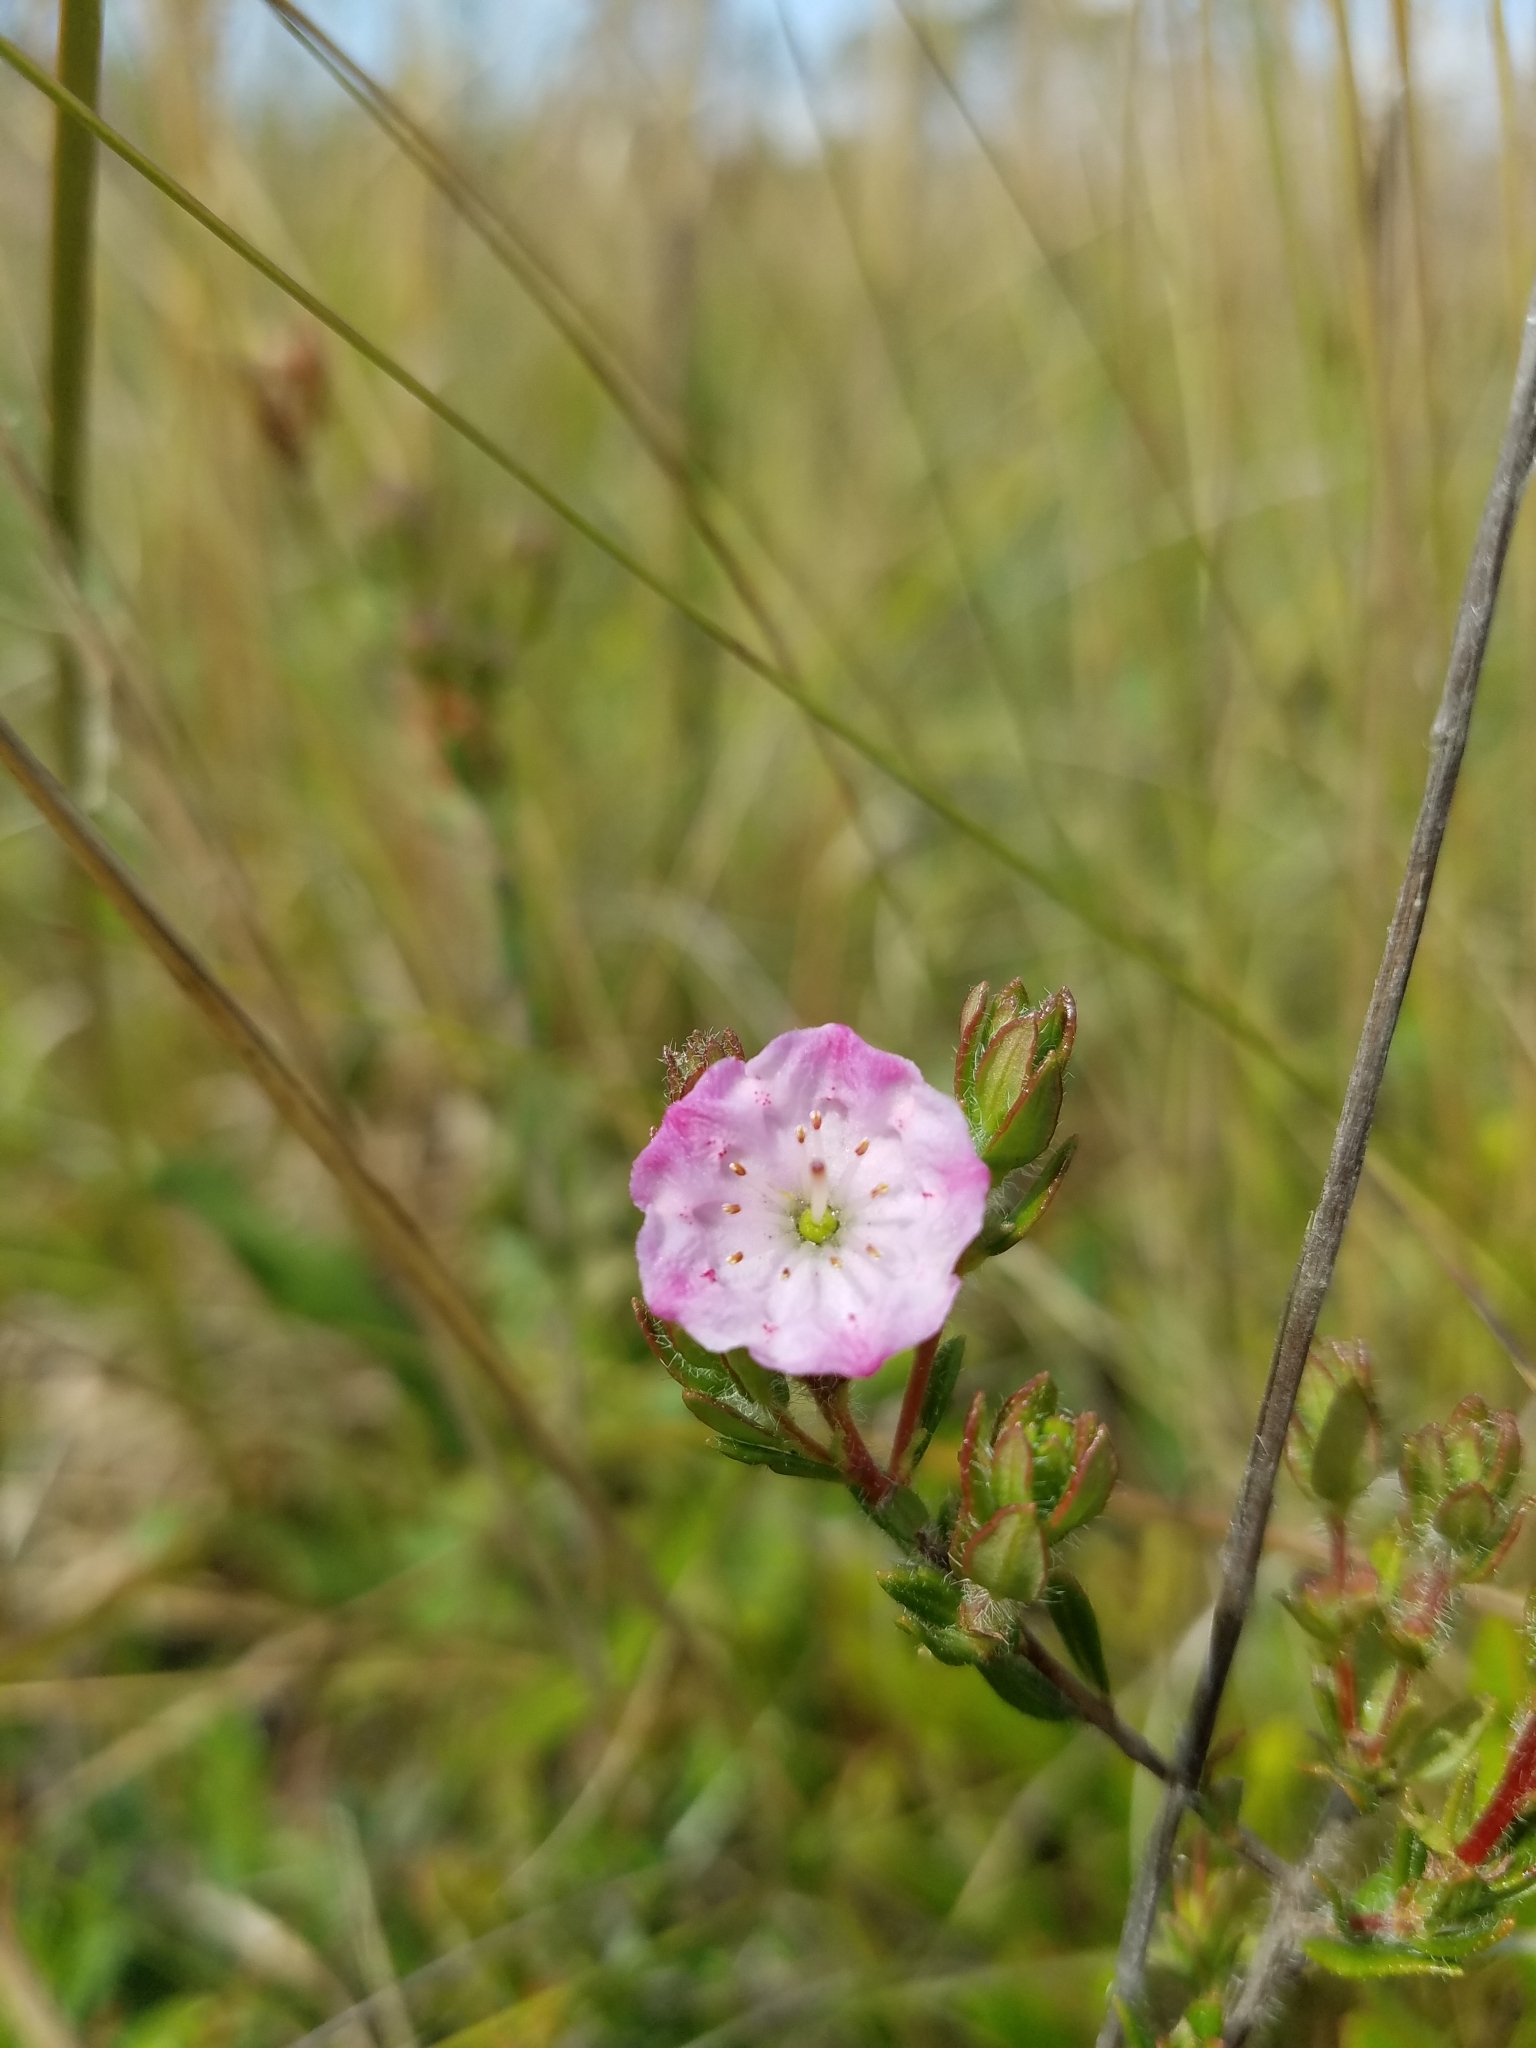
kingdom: Plantae
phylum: Tracheophyta
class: Magnoliopsida
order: Ericales
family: Ericaceae
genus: Kalmia
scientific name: Kalmia hirsuta
